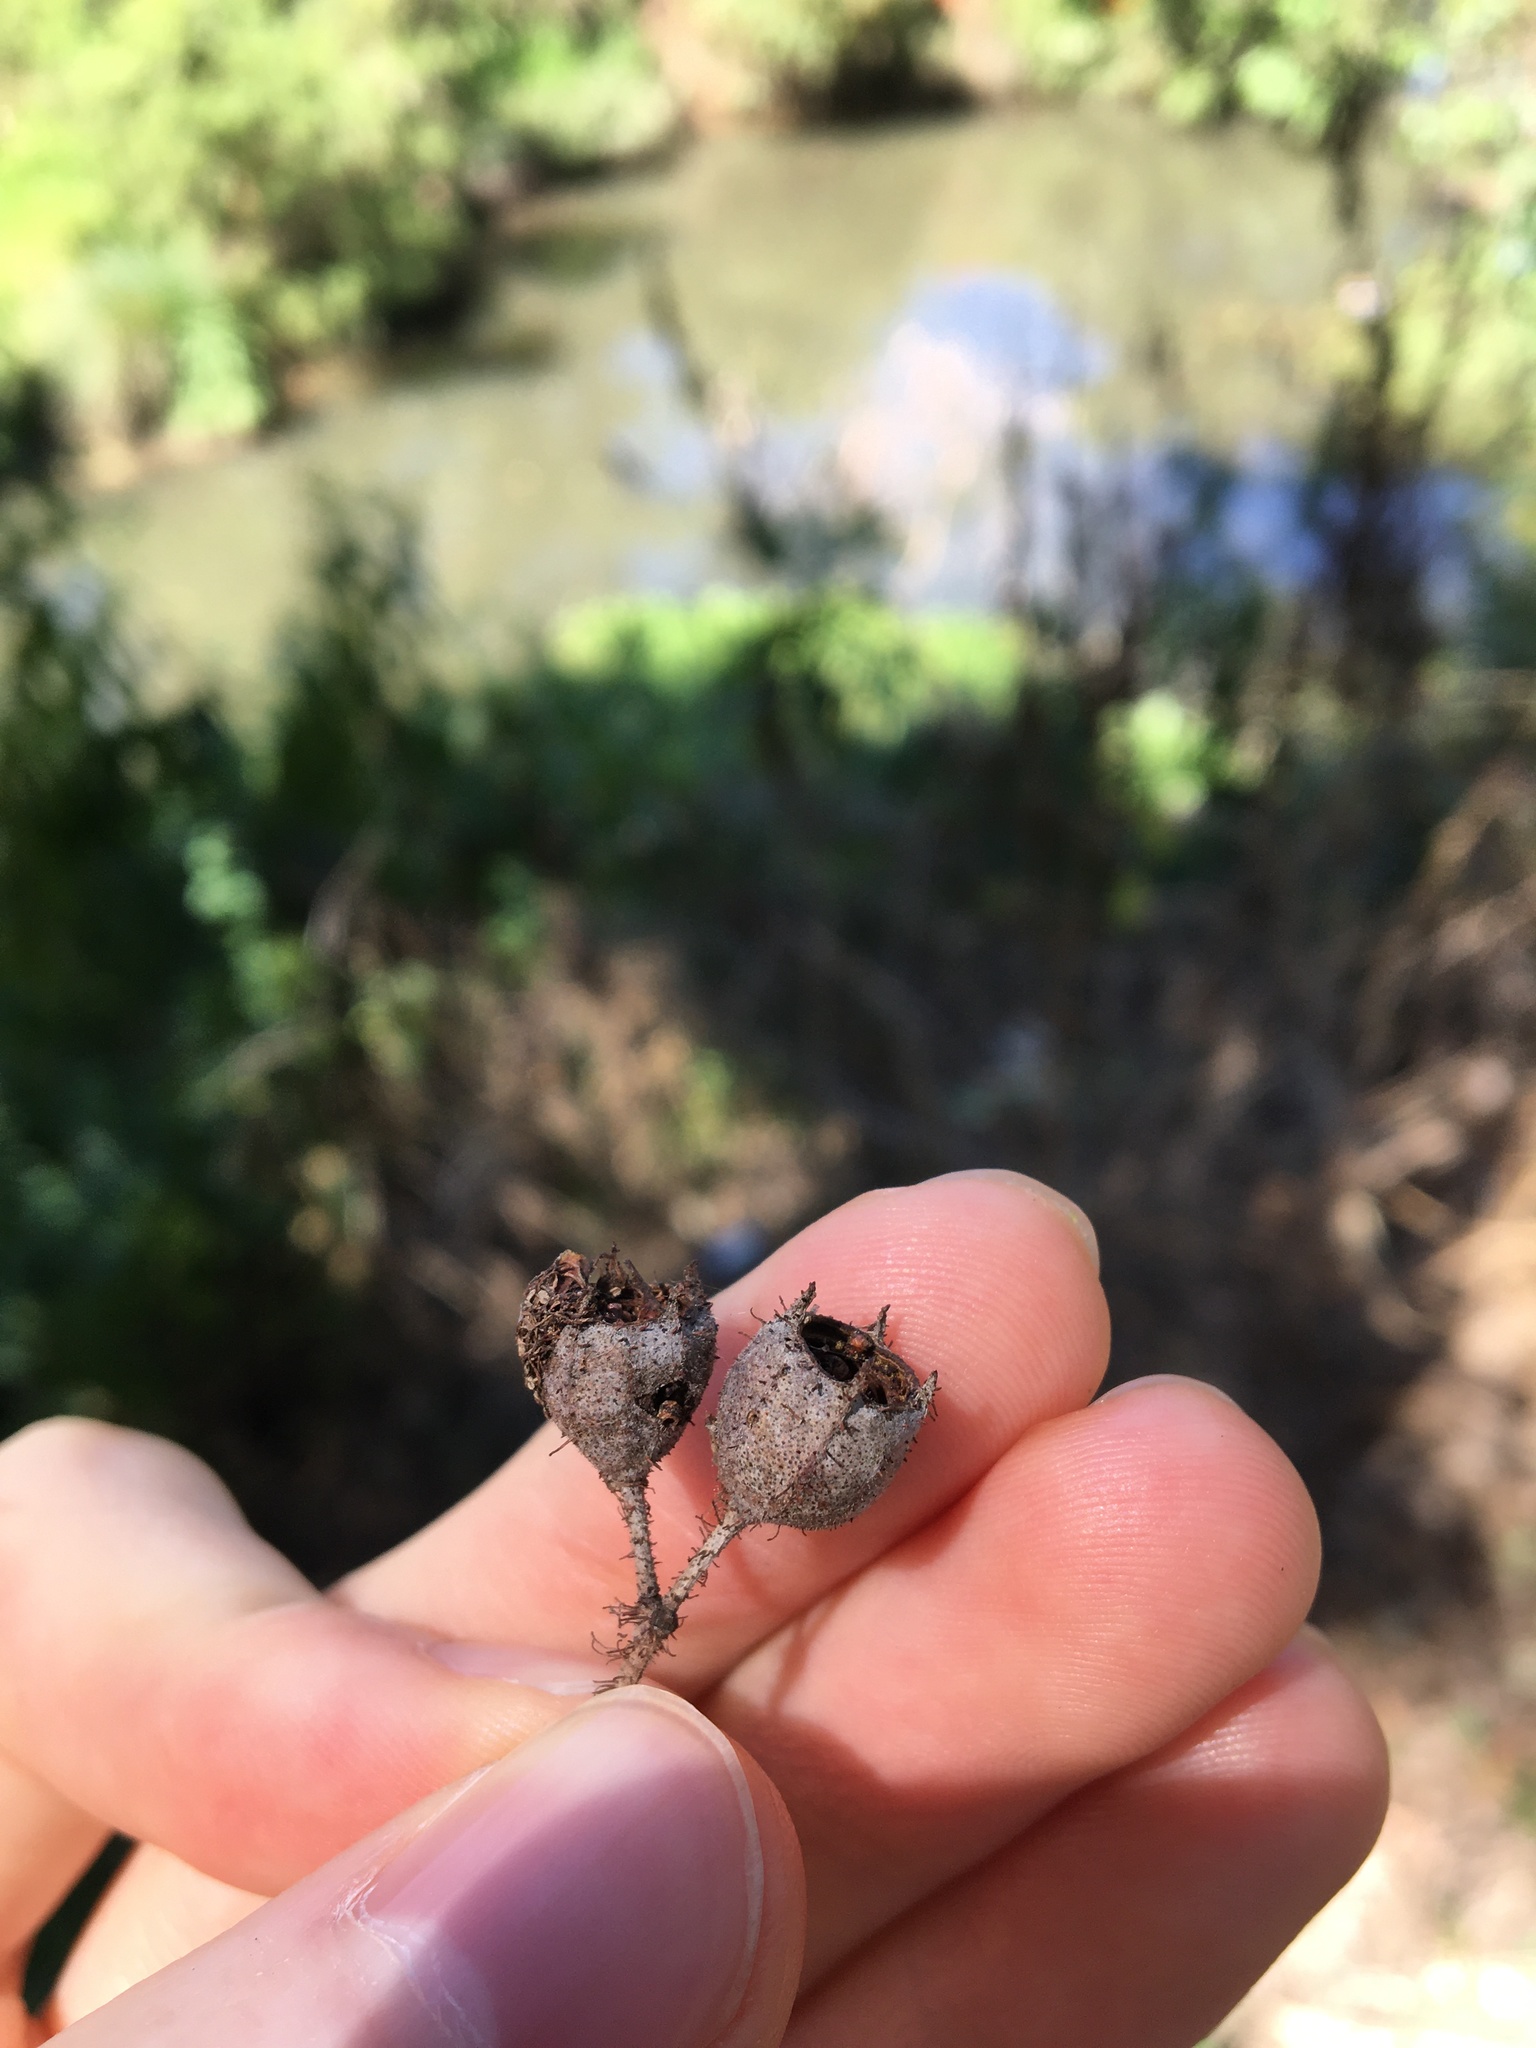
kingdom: Plantae
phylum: Tracheophyta
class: Magnoliopsida
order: Myrtales
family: Myrtaceae
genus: Angophora
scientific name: Angophora floribunda
